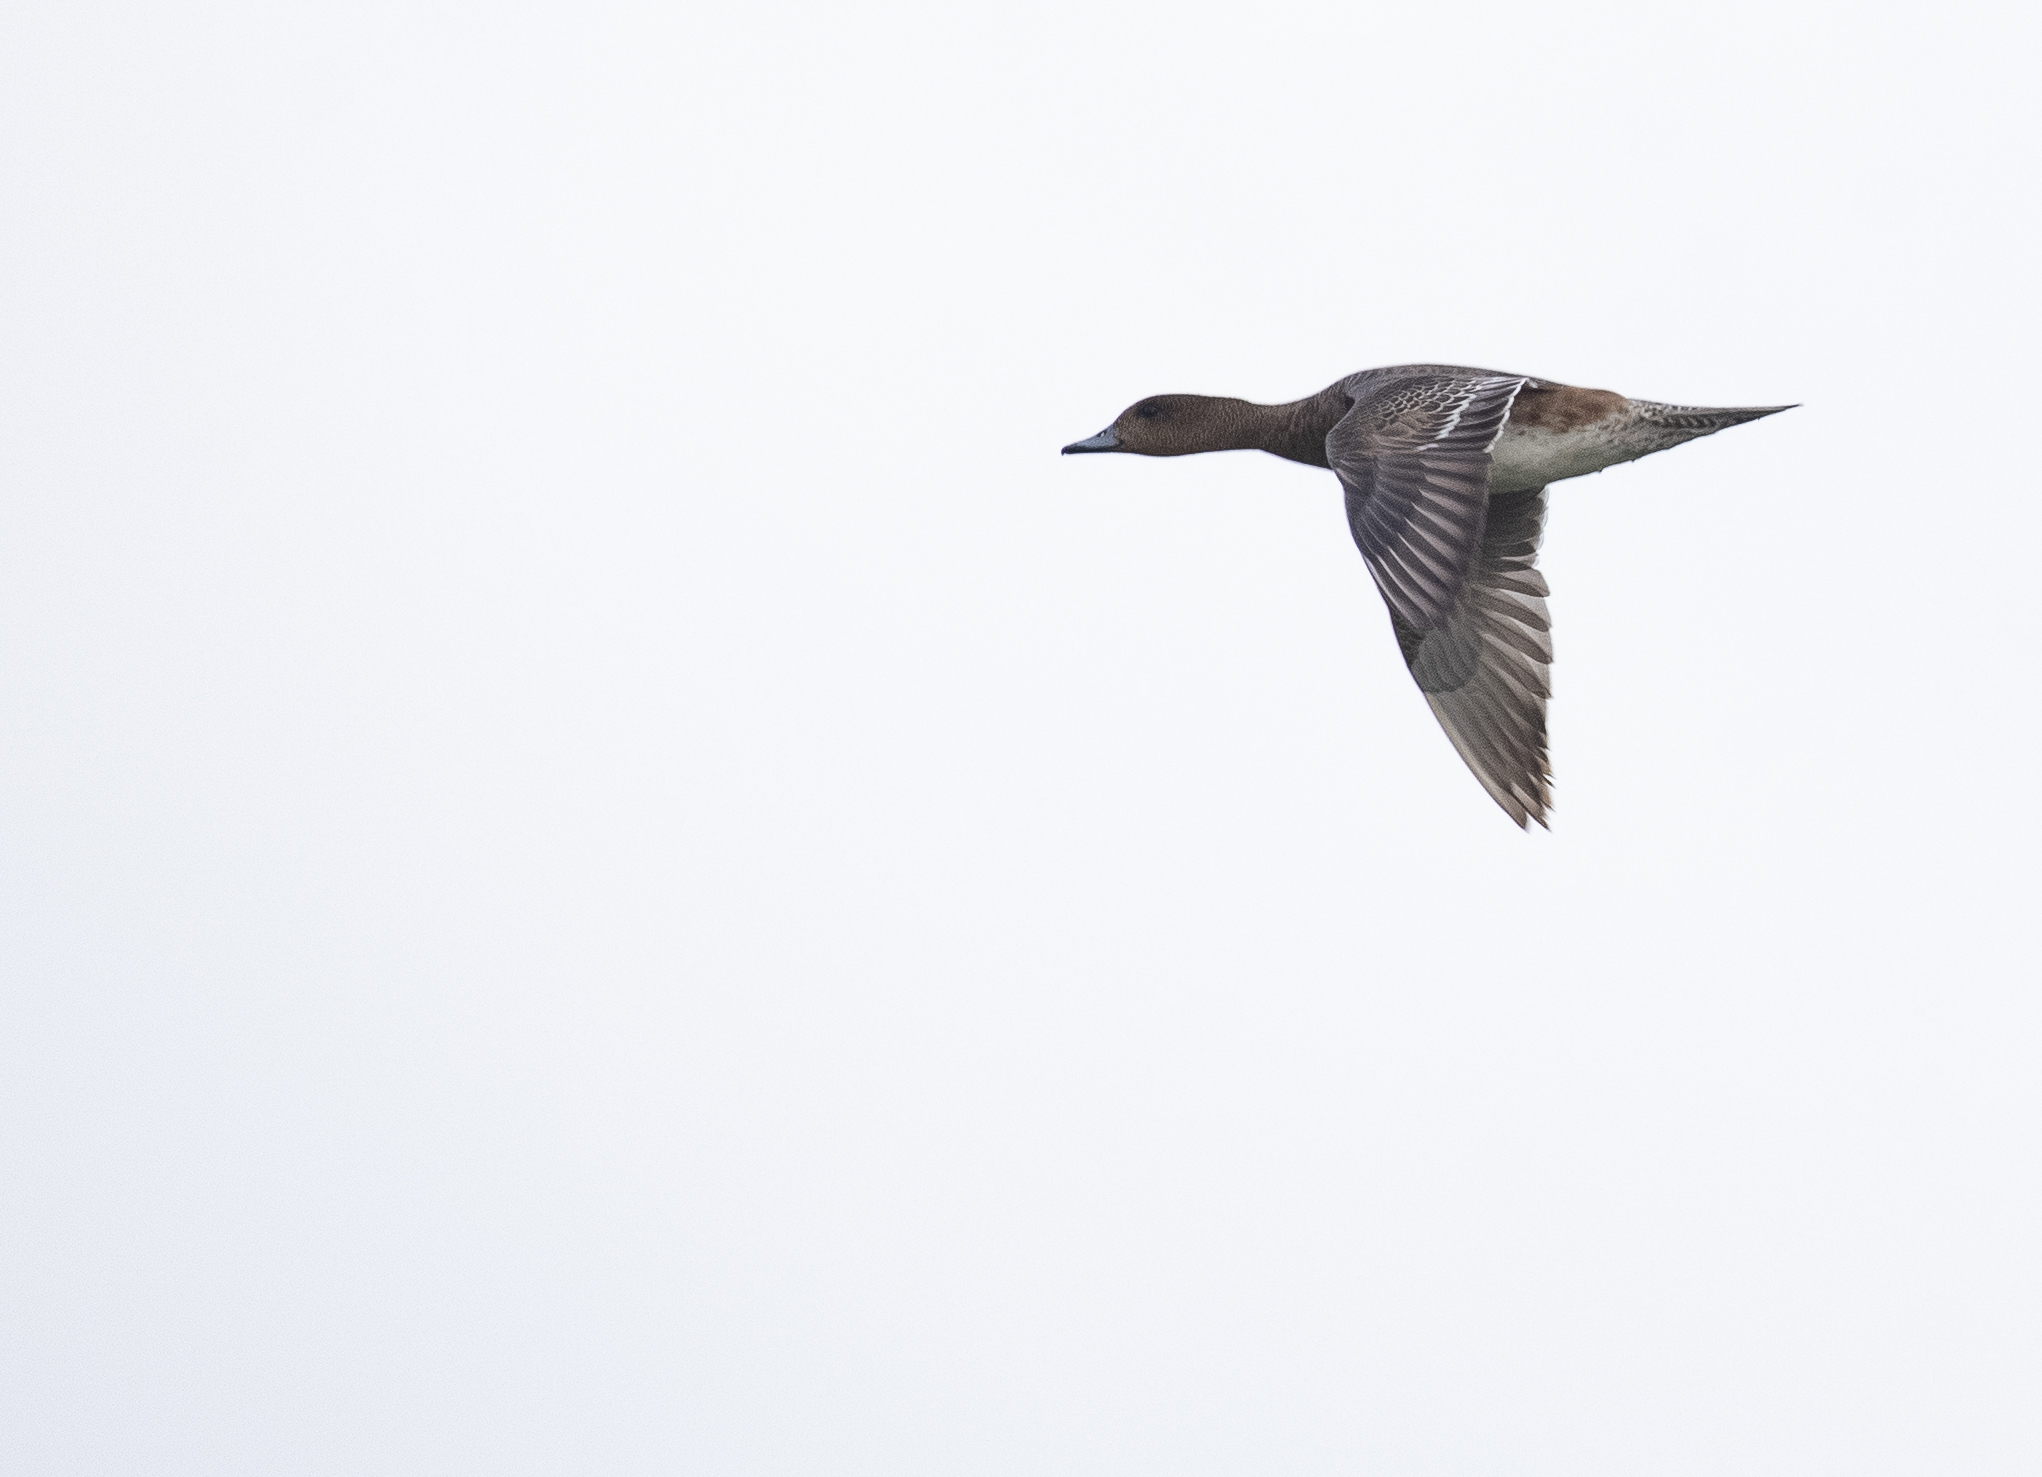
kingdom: Animalia
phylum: Chordata
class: Aves
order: Anseriformes
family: Anatidae
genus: Mareca
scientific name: Mareca penelope
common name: Eurasian wigeon
